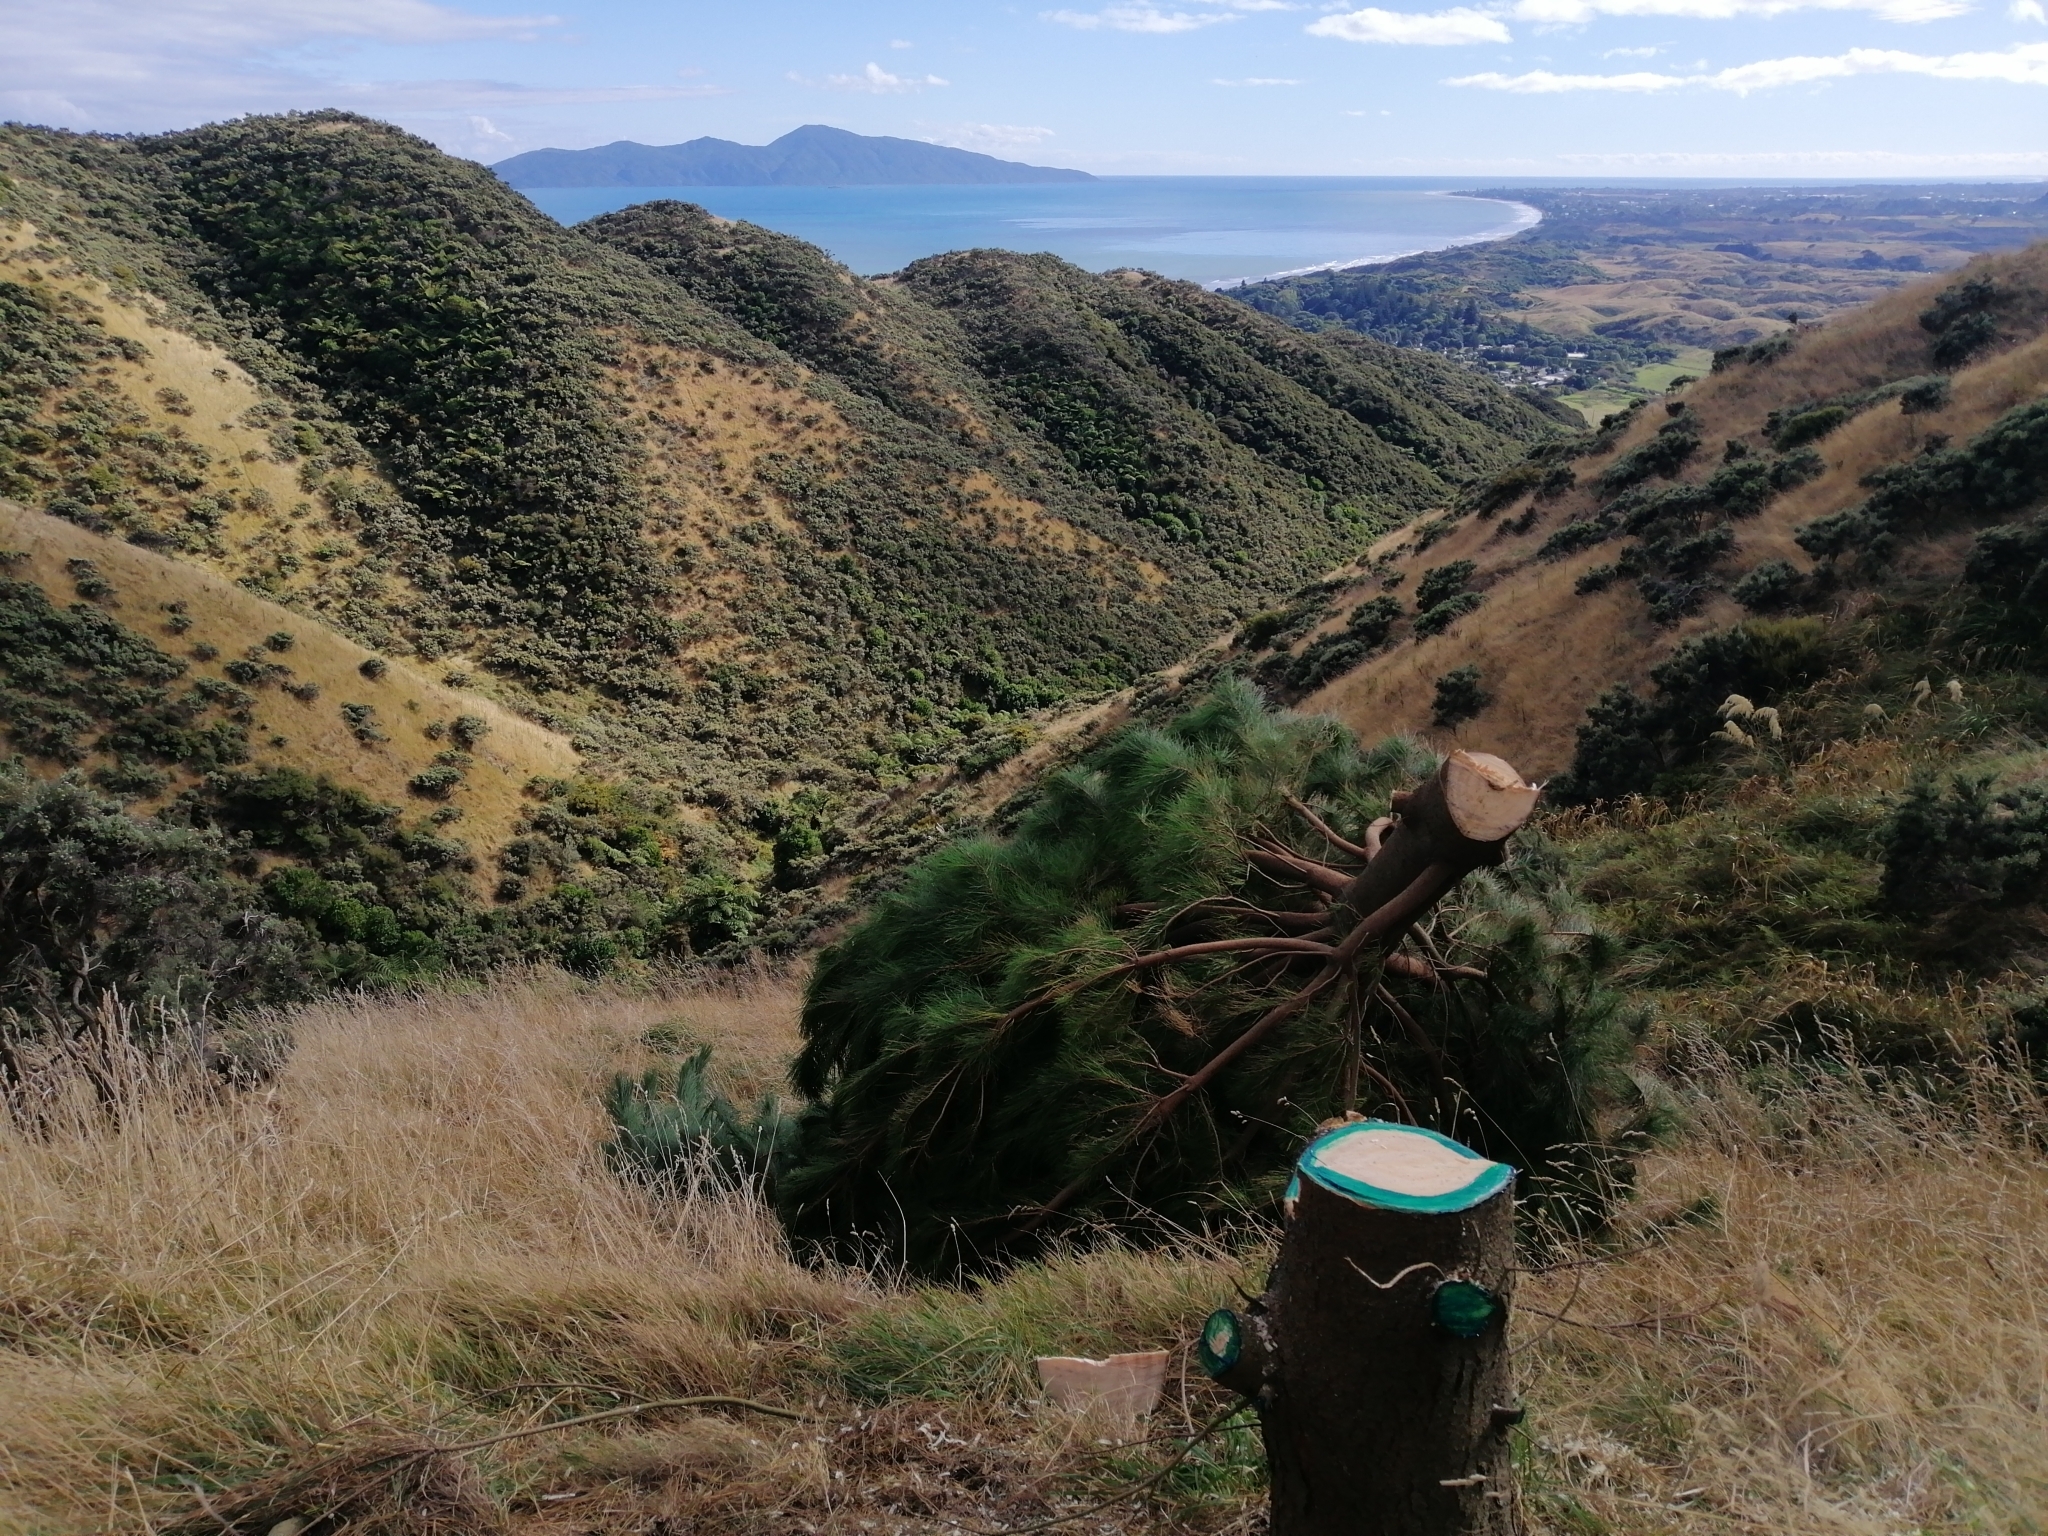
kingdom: Plantae
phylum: Tracheophyta
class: Pinopsida
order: Pinales
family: Pinaceae
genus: Pinus
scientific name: Pinus radiata
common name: Monterey pine
